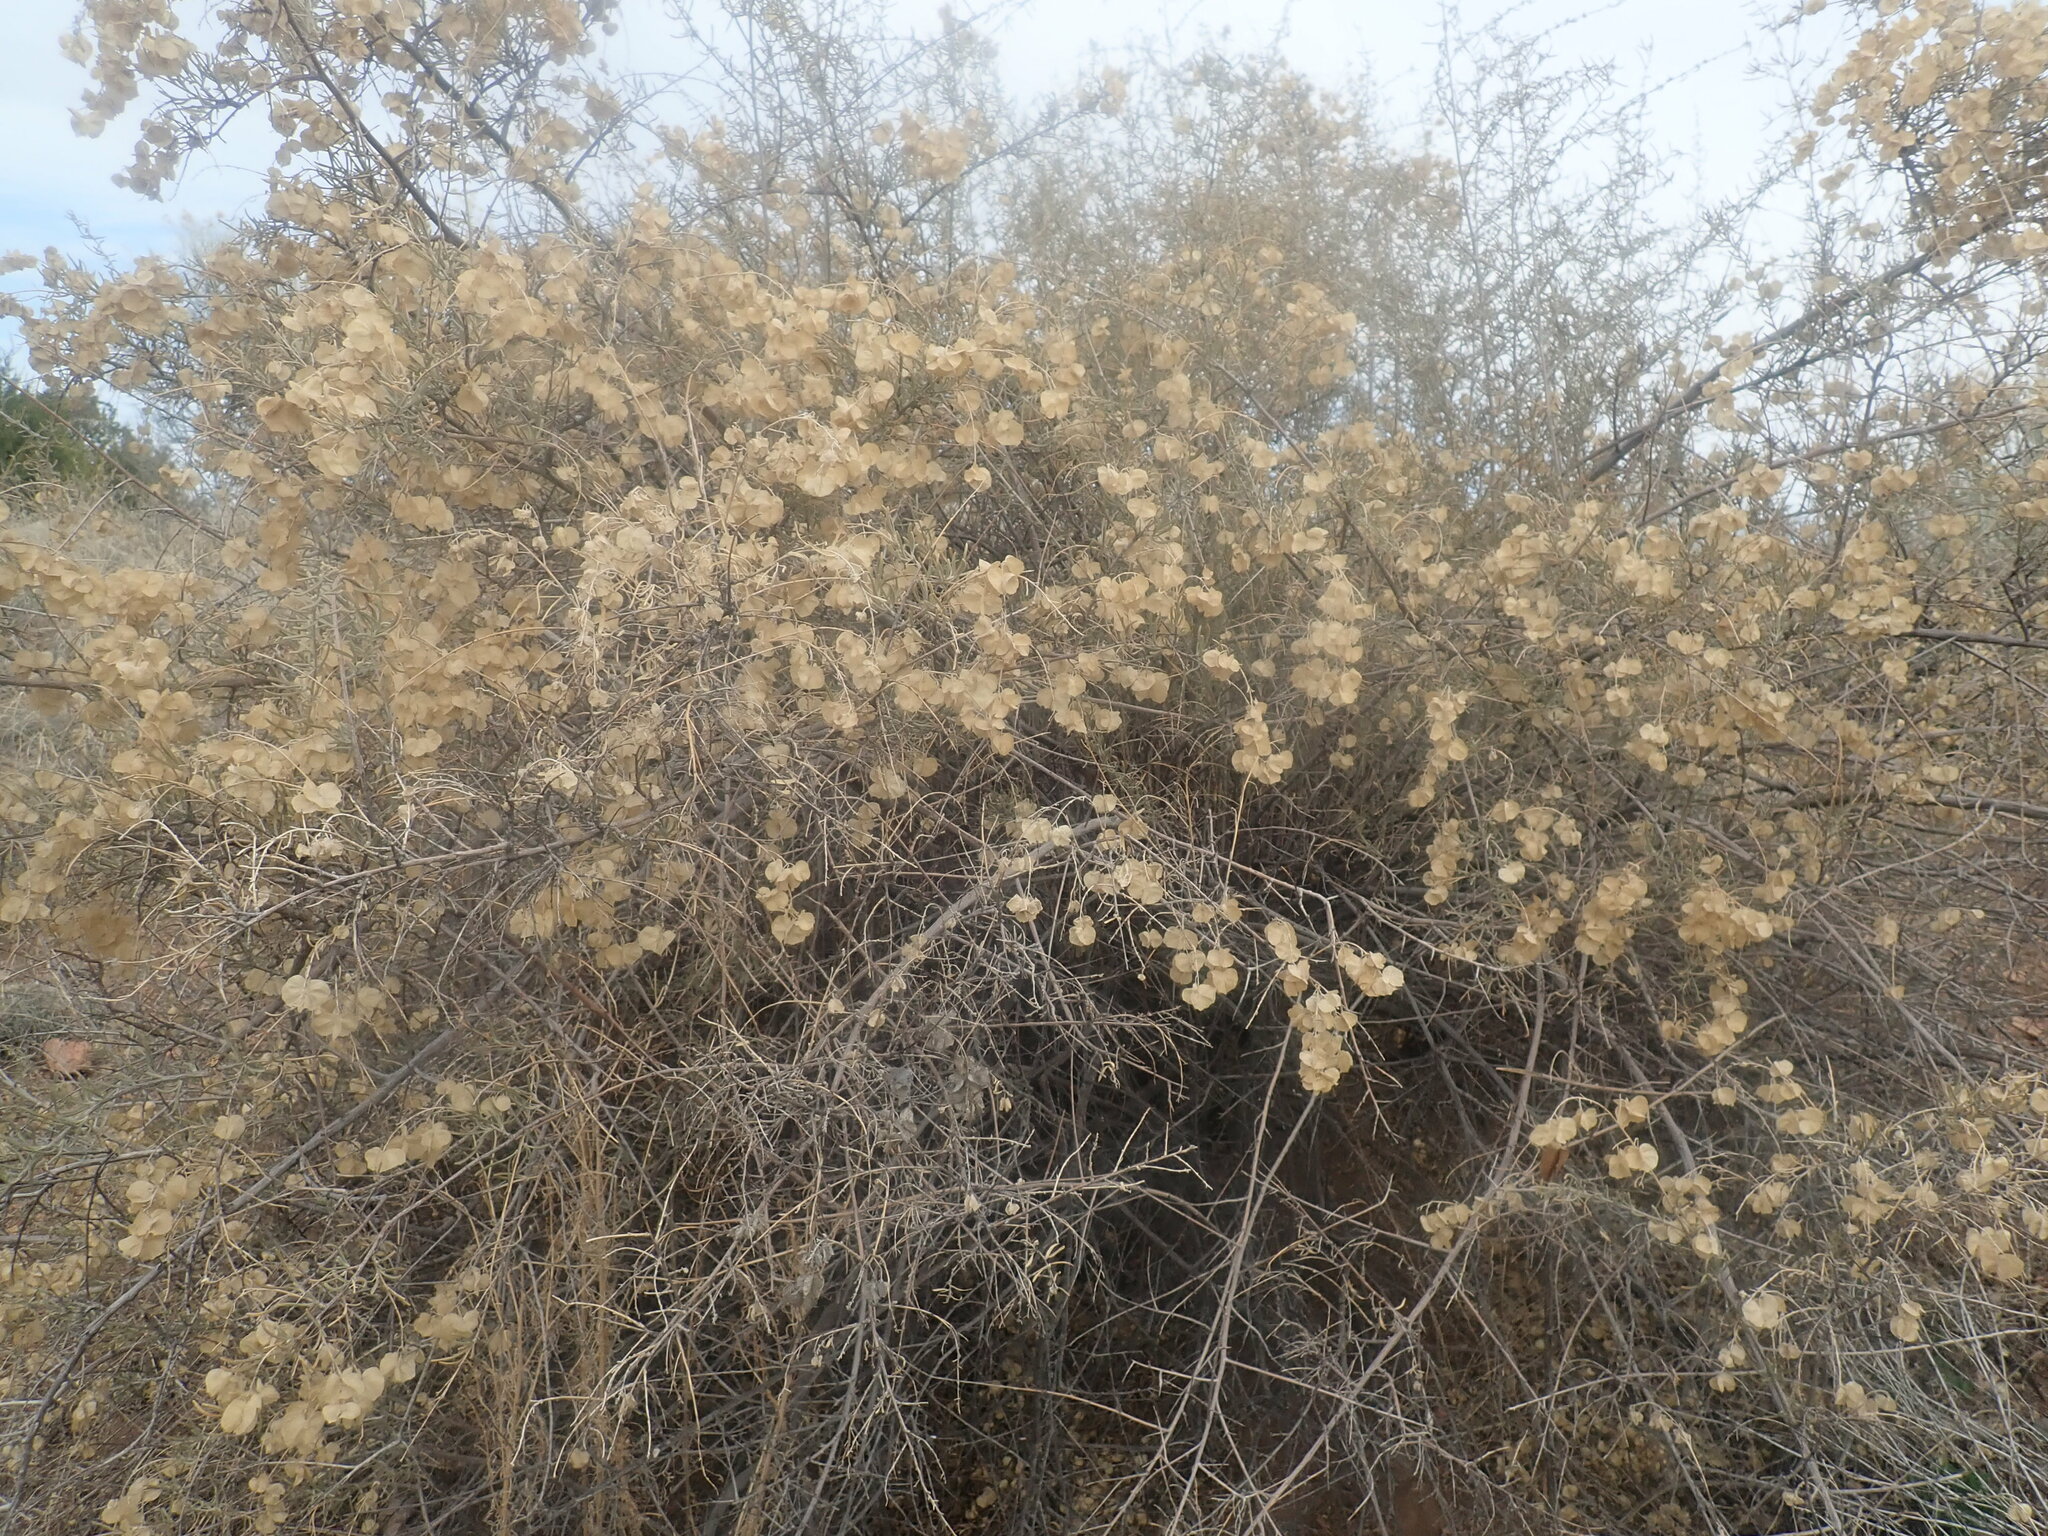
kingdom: Plantae
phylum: Tracheophyta
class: Magnoliopsida
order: Caryophyllales
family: Amaranthaceae
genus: Atriplex
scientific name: Atriplex canescens
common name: Four-wing saltbush
